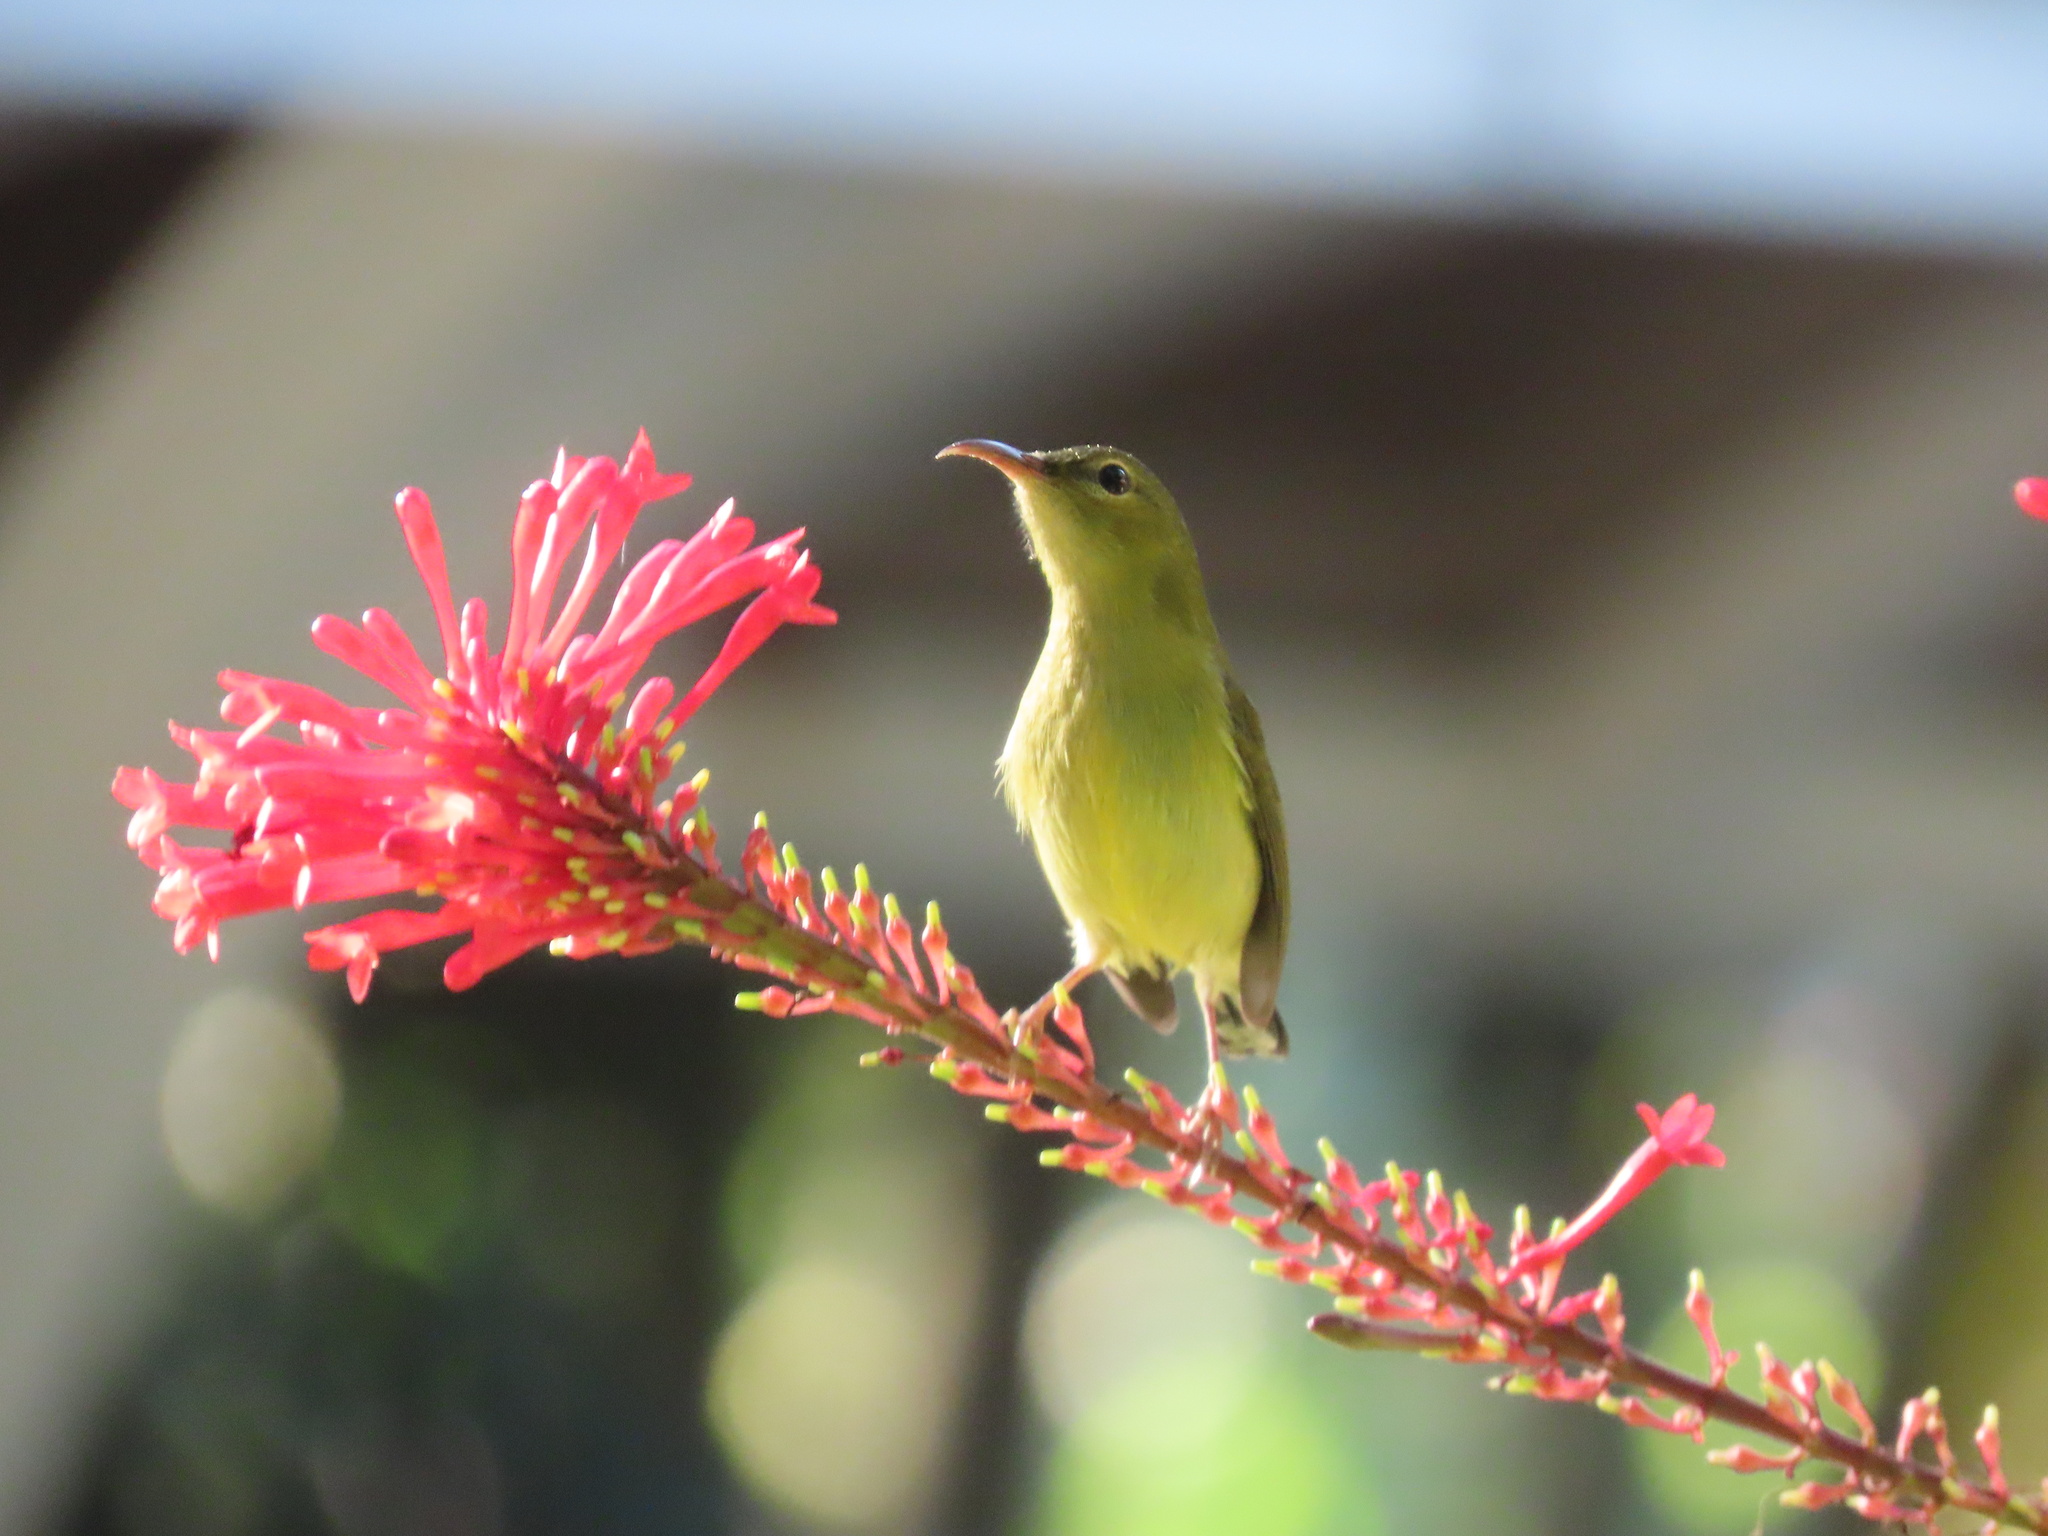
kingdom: Animalia
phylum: Chordata
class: Aves
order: Passeriformes
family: Nectariniidae
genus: Aethopyga
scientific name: Aethopyga christinae
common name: Fork-tailed sunbird
